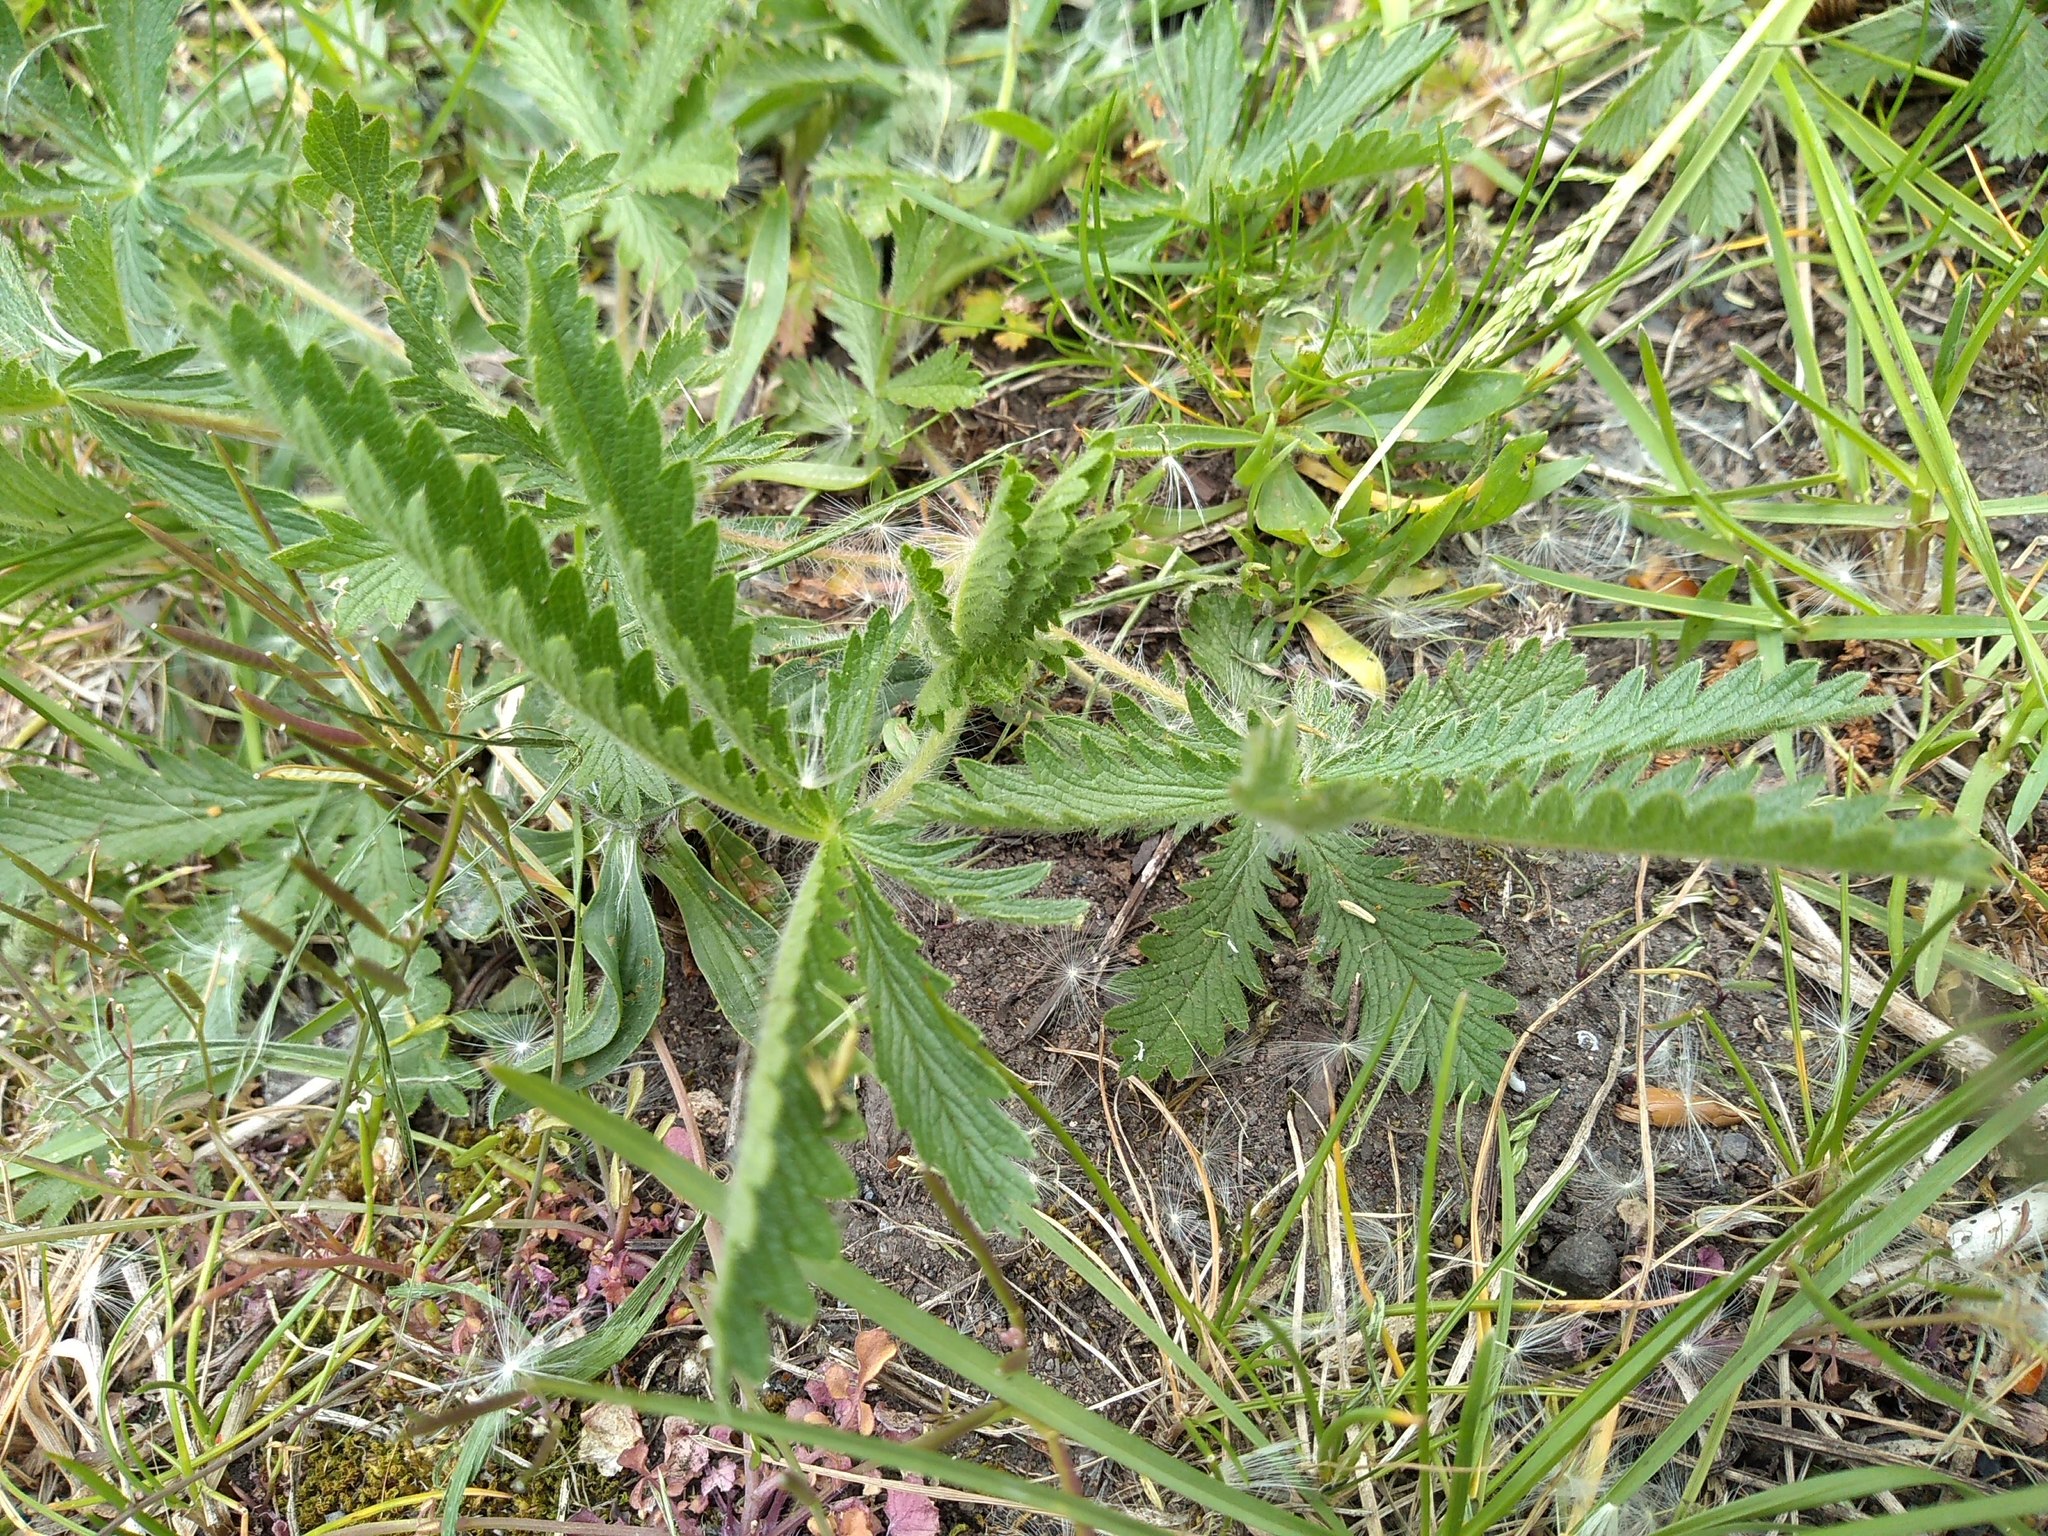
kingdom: Plantae
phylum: Tracheophyta
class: Magnoliopsida
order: Rosales
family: Rosaceae
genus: Potentilla
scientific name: Potentilla recta
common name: Sulphur cinquefoil
